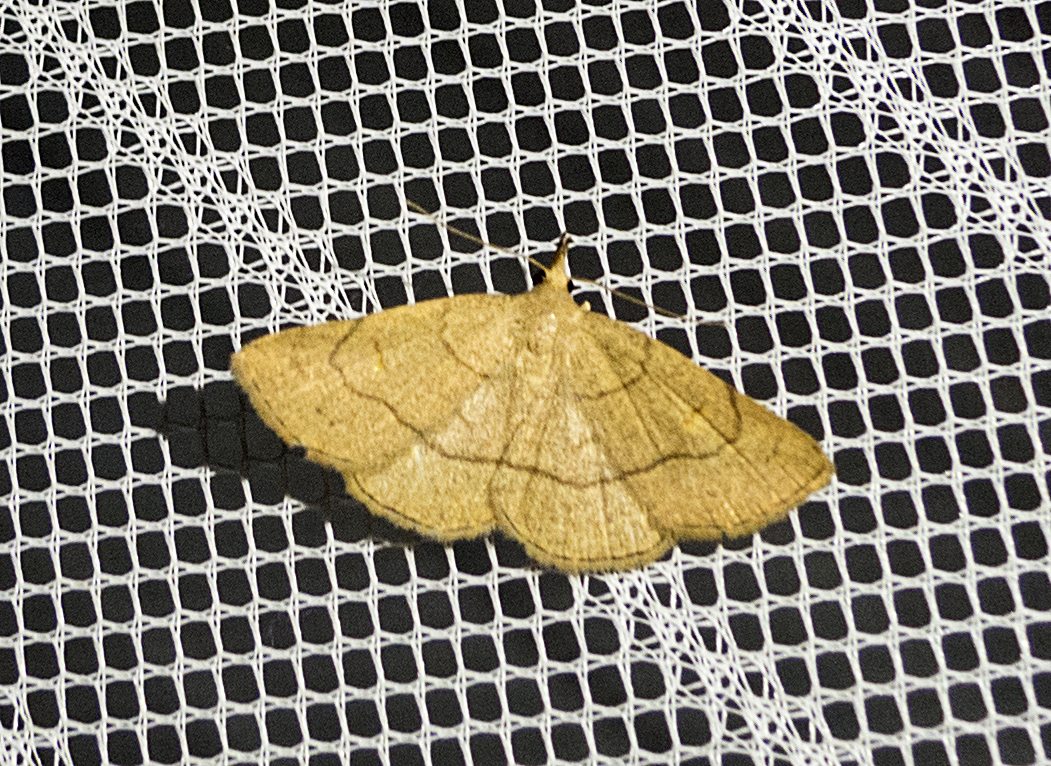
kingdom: Animalia
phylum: Arthropoda
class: Insecta
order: Lepidoptera
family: Erebidae
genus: Paracolax
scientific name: Paracolax tristalis
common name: Clay fan-foot
